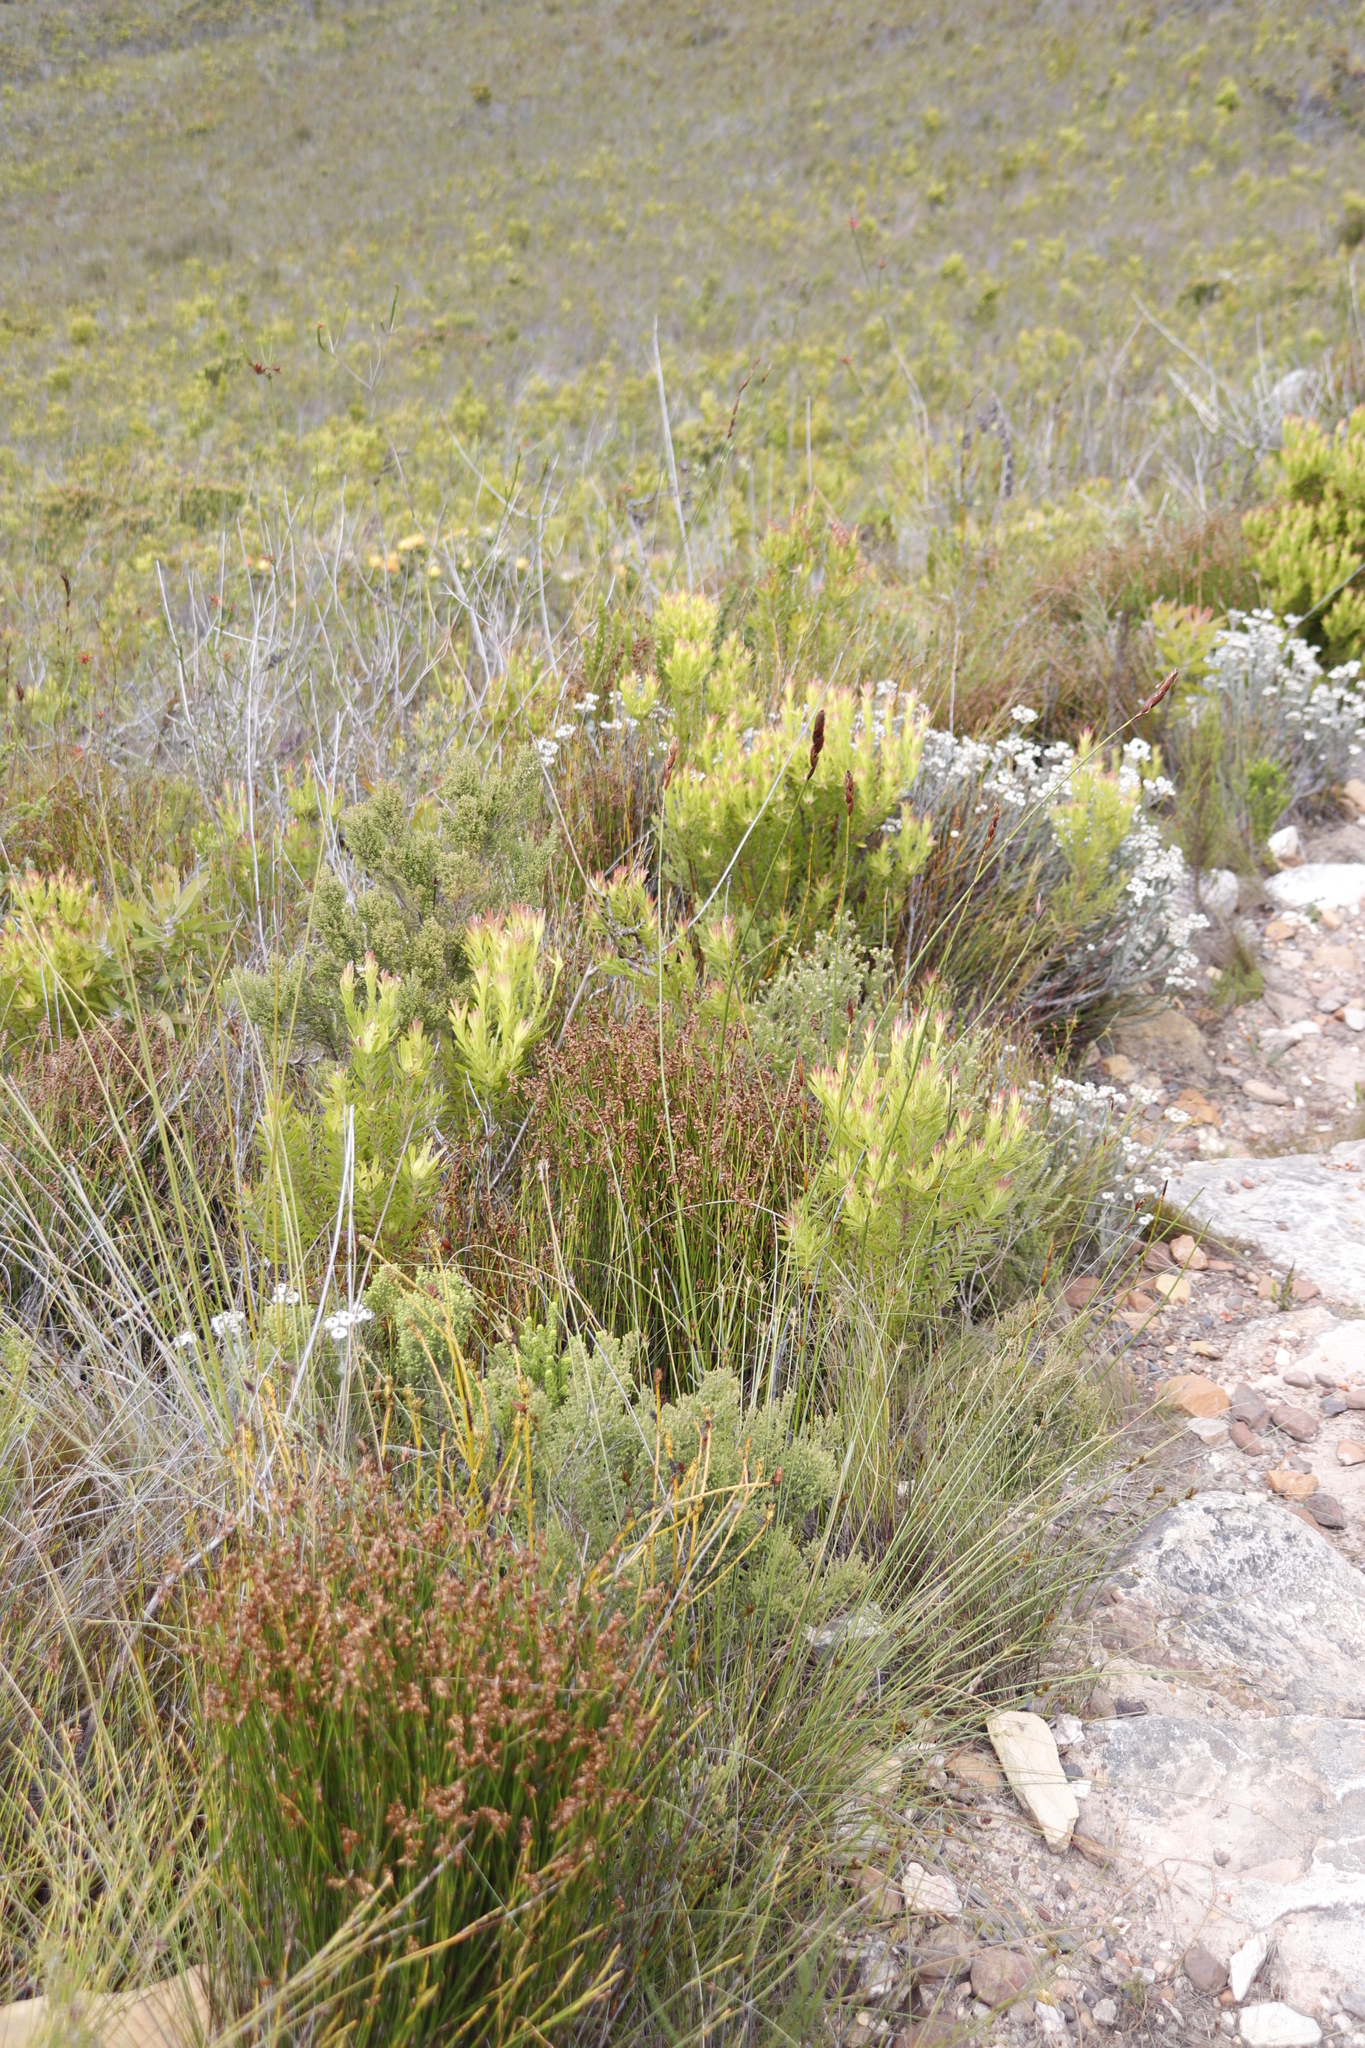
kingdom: Plantae
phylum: Tracheophyta
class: Magnoliopsida
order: Proteales
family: Proteaceae
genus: Leucadendron
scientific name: Leucadendron xanthoconus
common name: Sickle-leaf conebush
